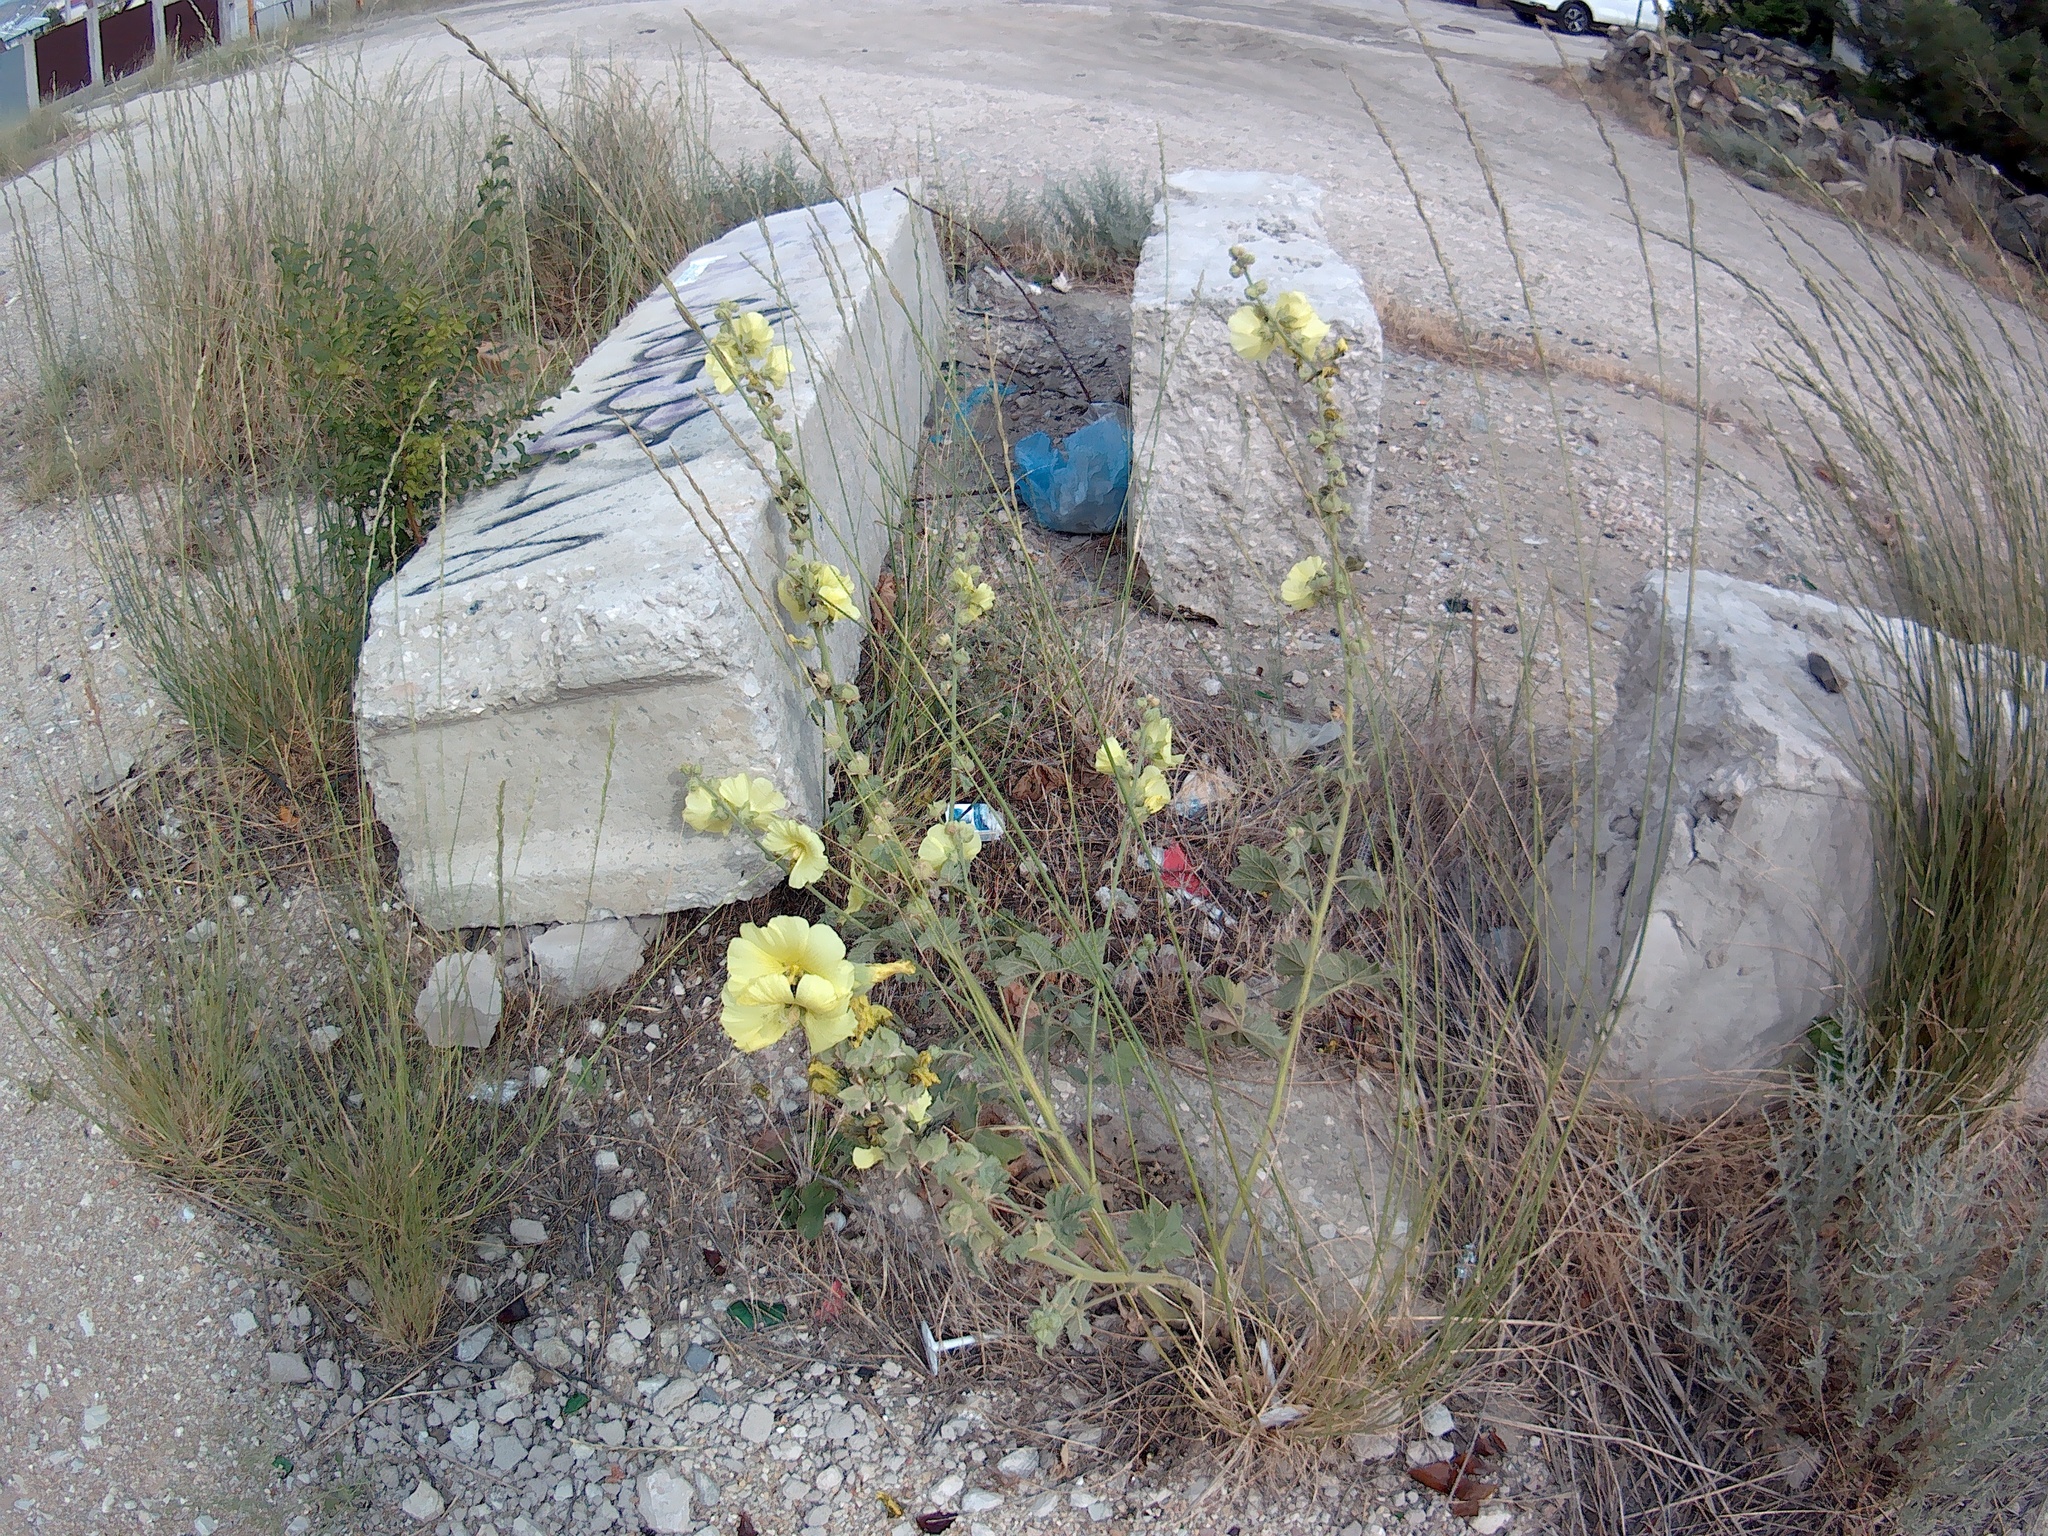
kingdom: Plantae
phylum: Tracheophyta
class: Magnoliopsida
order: Malvales
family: Malvaceae
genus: Alcea
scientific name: Alcea rugosa
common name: Russian hollyhock
